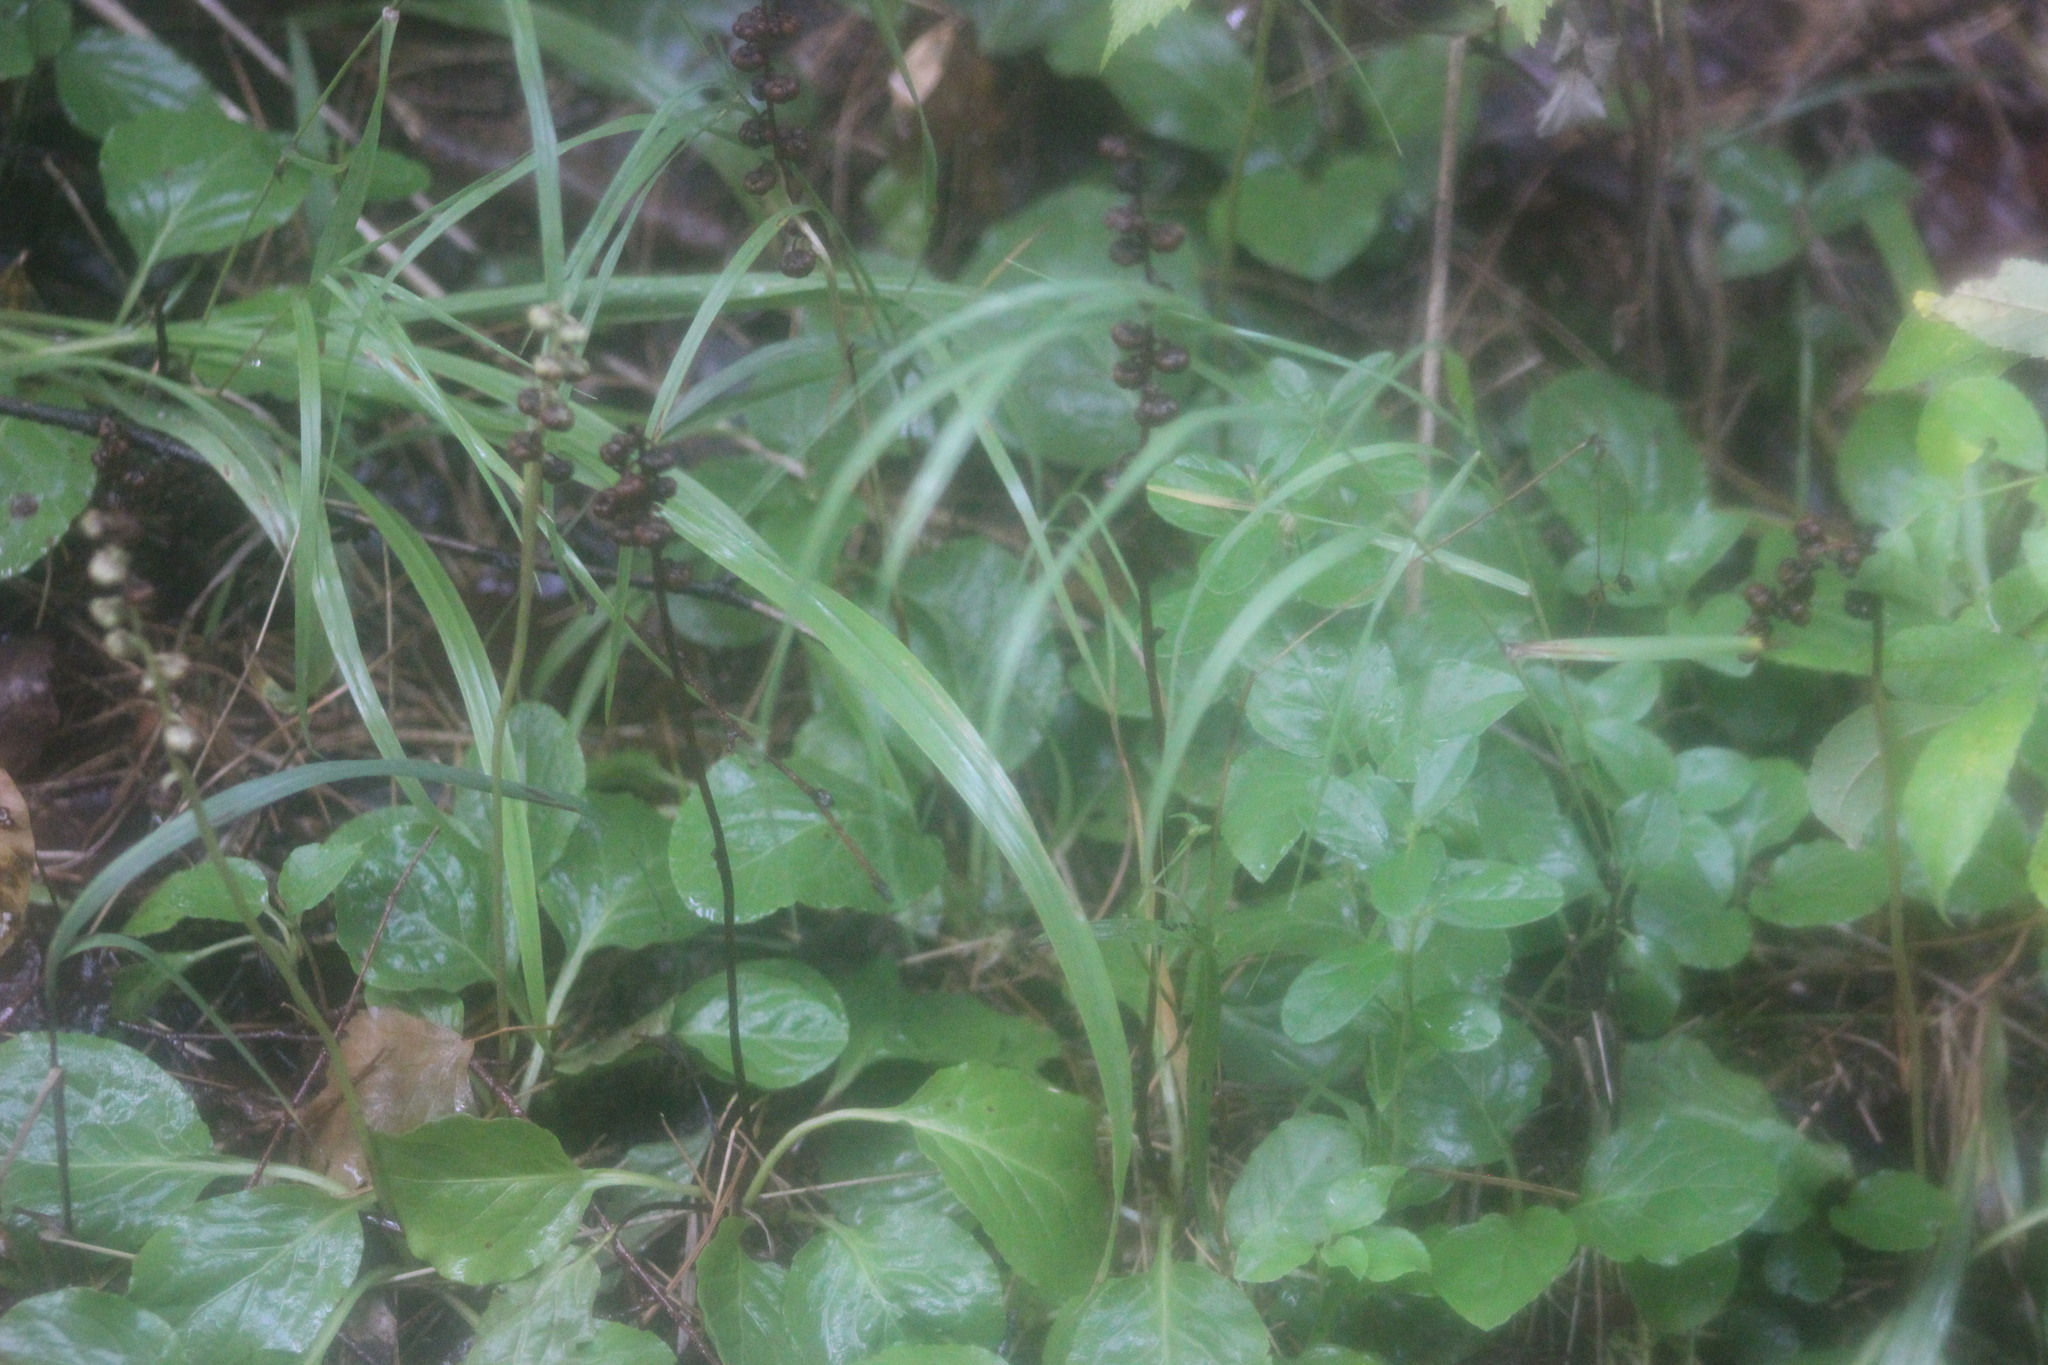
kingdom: Plantae
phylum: Tracheophyta
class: Magnoliopsida
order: Ericales
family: Ericaceae
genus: Pyrola
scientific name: Pyrola minor
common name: Common wintergreen
